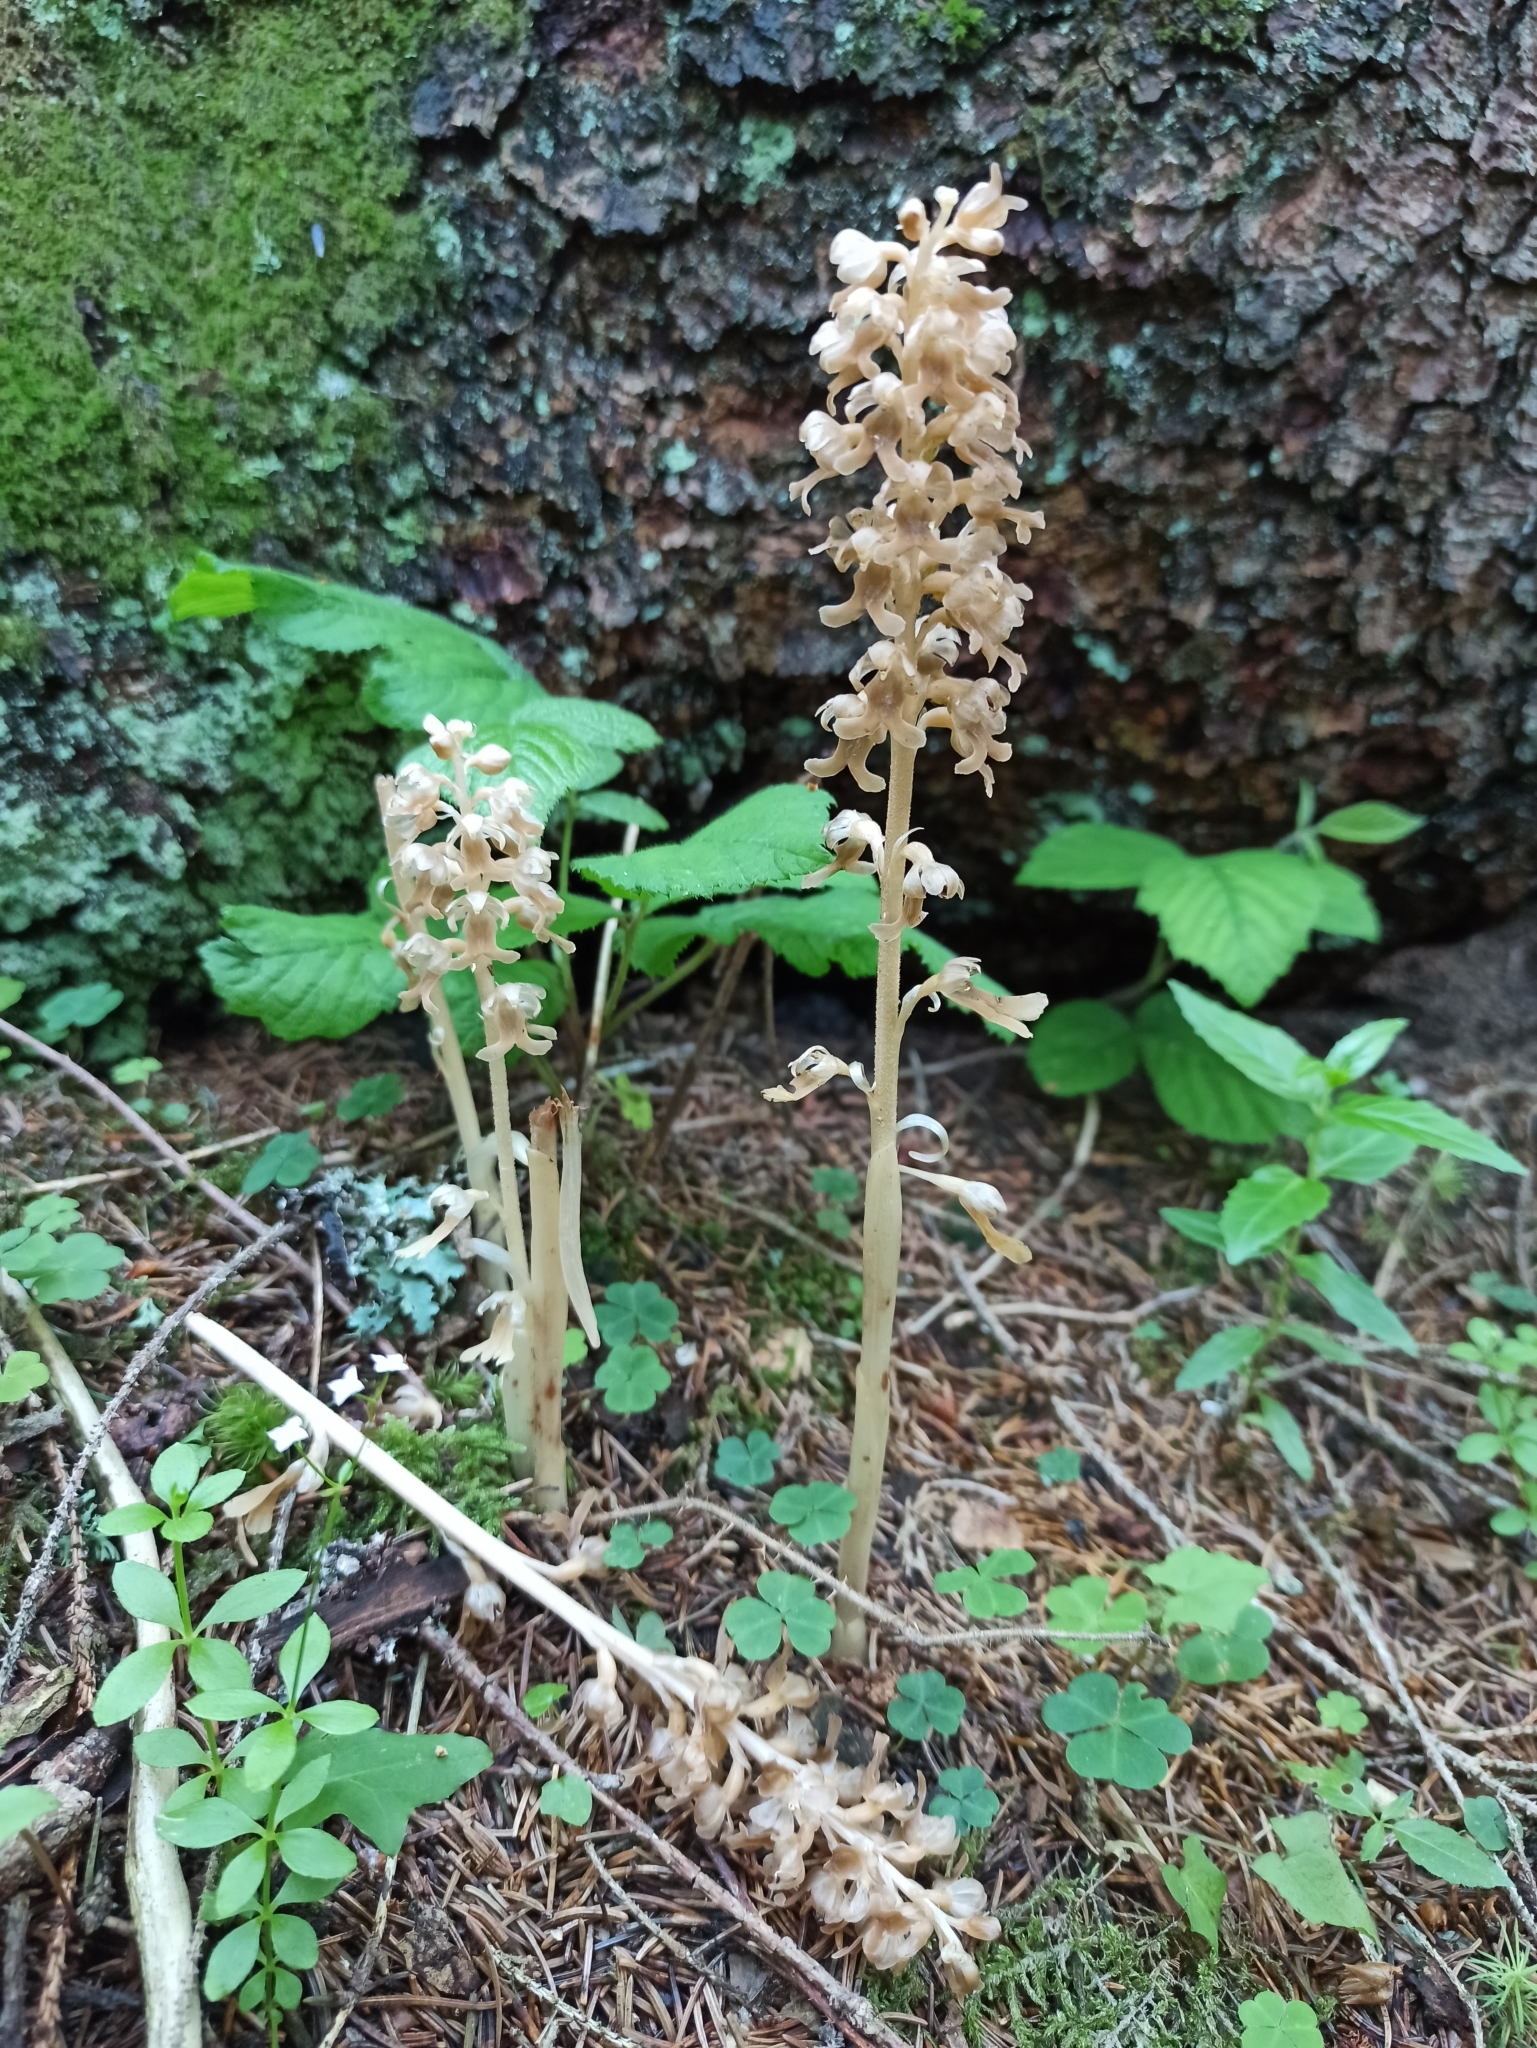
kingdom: Plantae
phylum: Tracheophyta
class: Liliopsida
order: Asparagales
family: Orchidaceae
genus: Neottia
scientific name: Neottia nidus-avis
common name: Bird's-nest orchid
